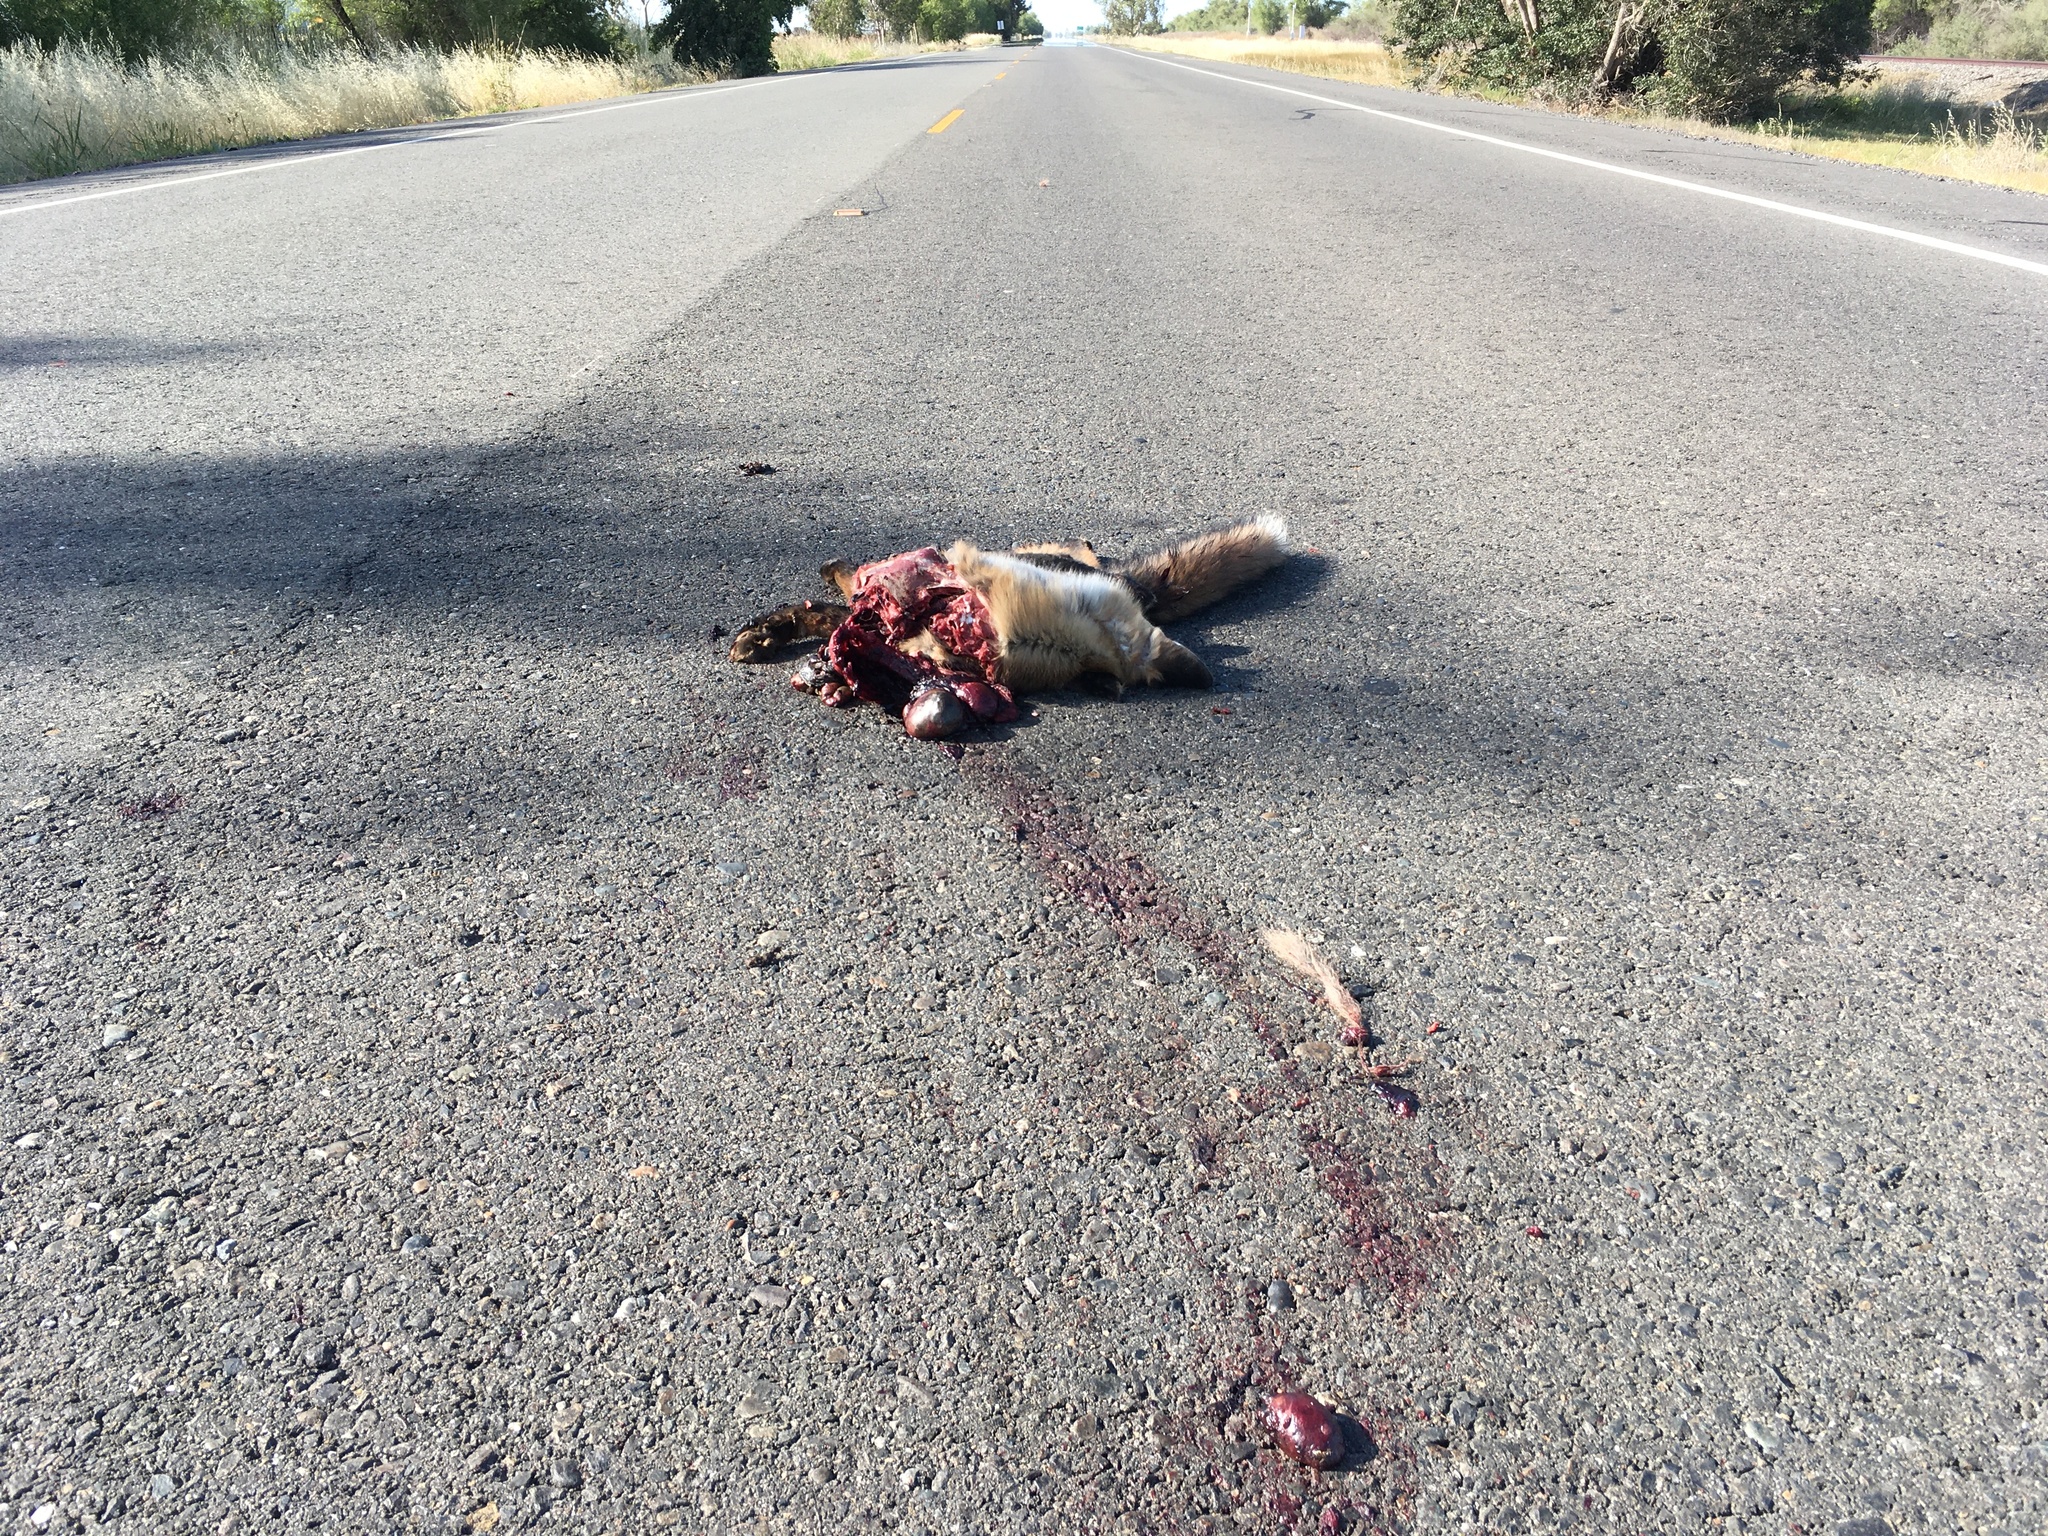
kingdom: Animalia
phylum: Chordata
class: Mammalia
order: Carnivora
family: Canidae
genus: Vulpes
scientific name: Vulpes vulpes
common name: Red fox
